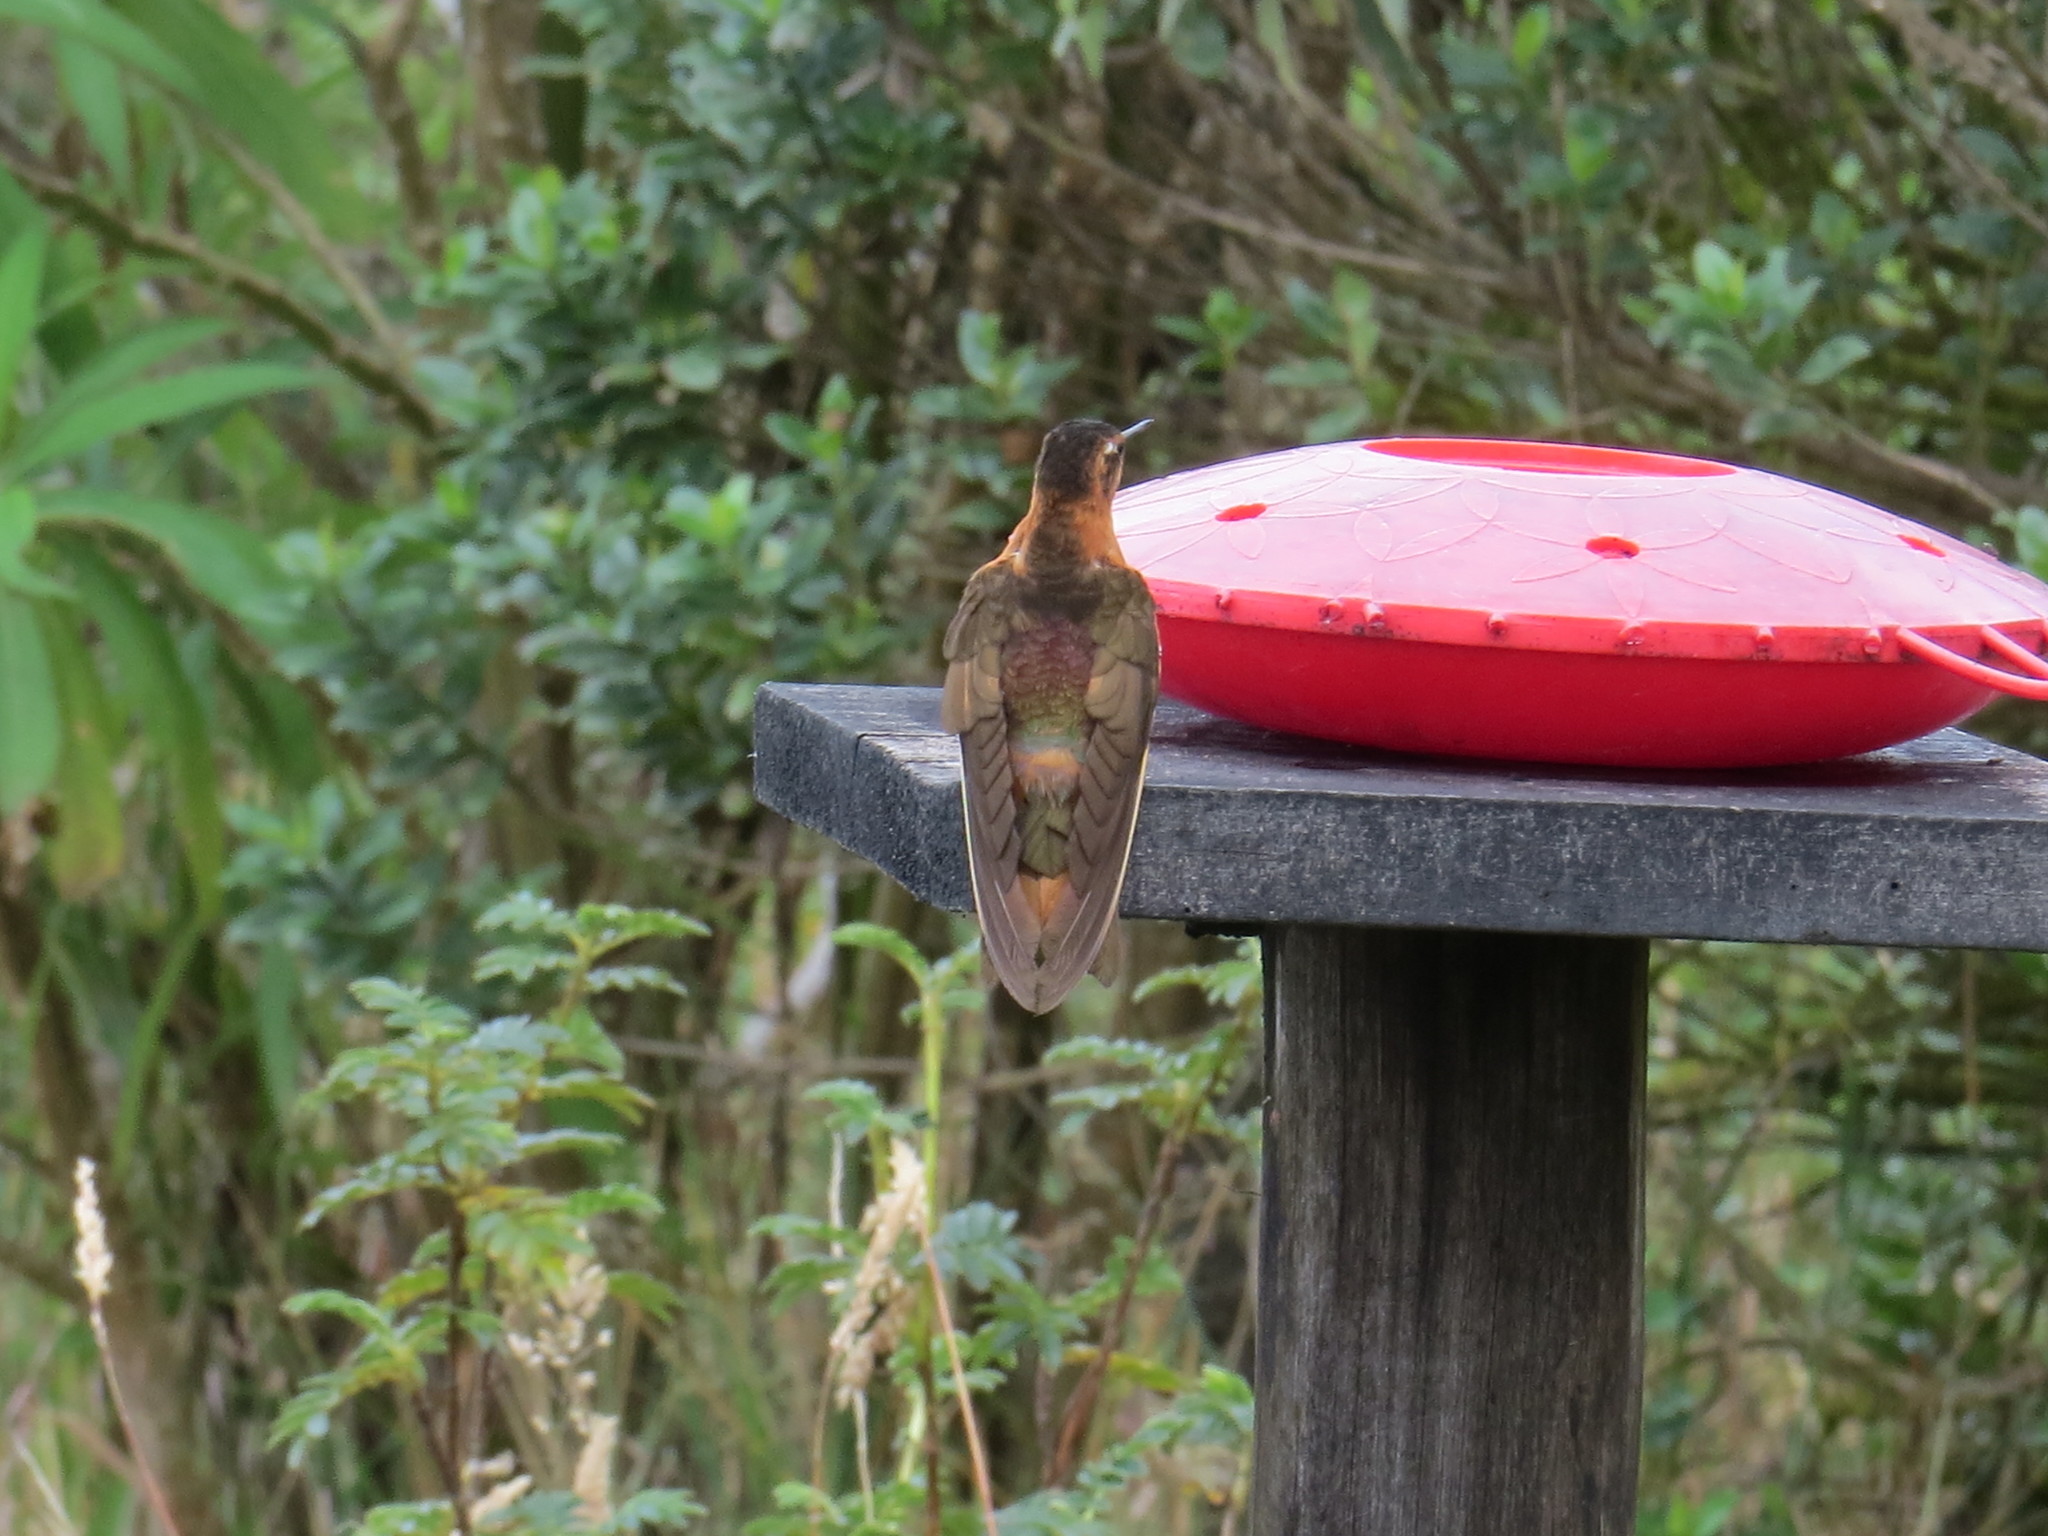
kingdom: Animalia
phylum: Chordata
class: Aves
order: Apodiformes
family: Trochilidae
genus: Aglaeactis
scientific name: Aglaeactis cupripennis
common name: Shining sunbeam
